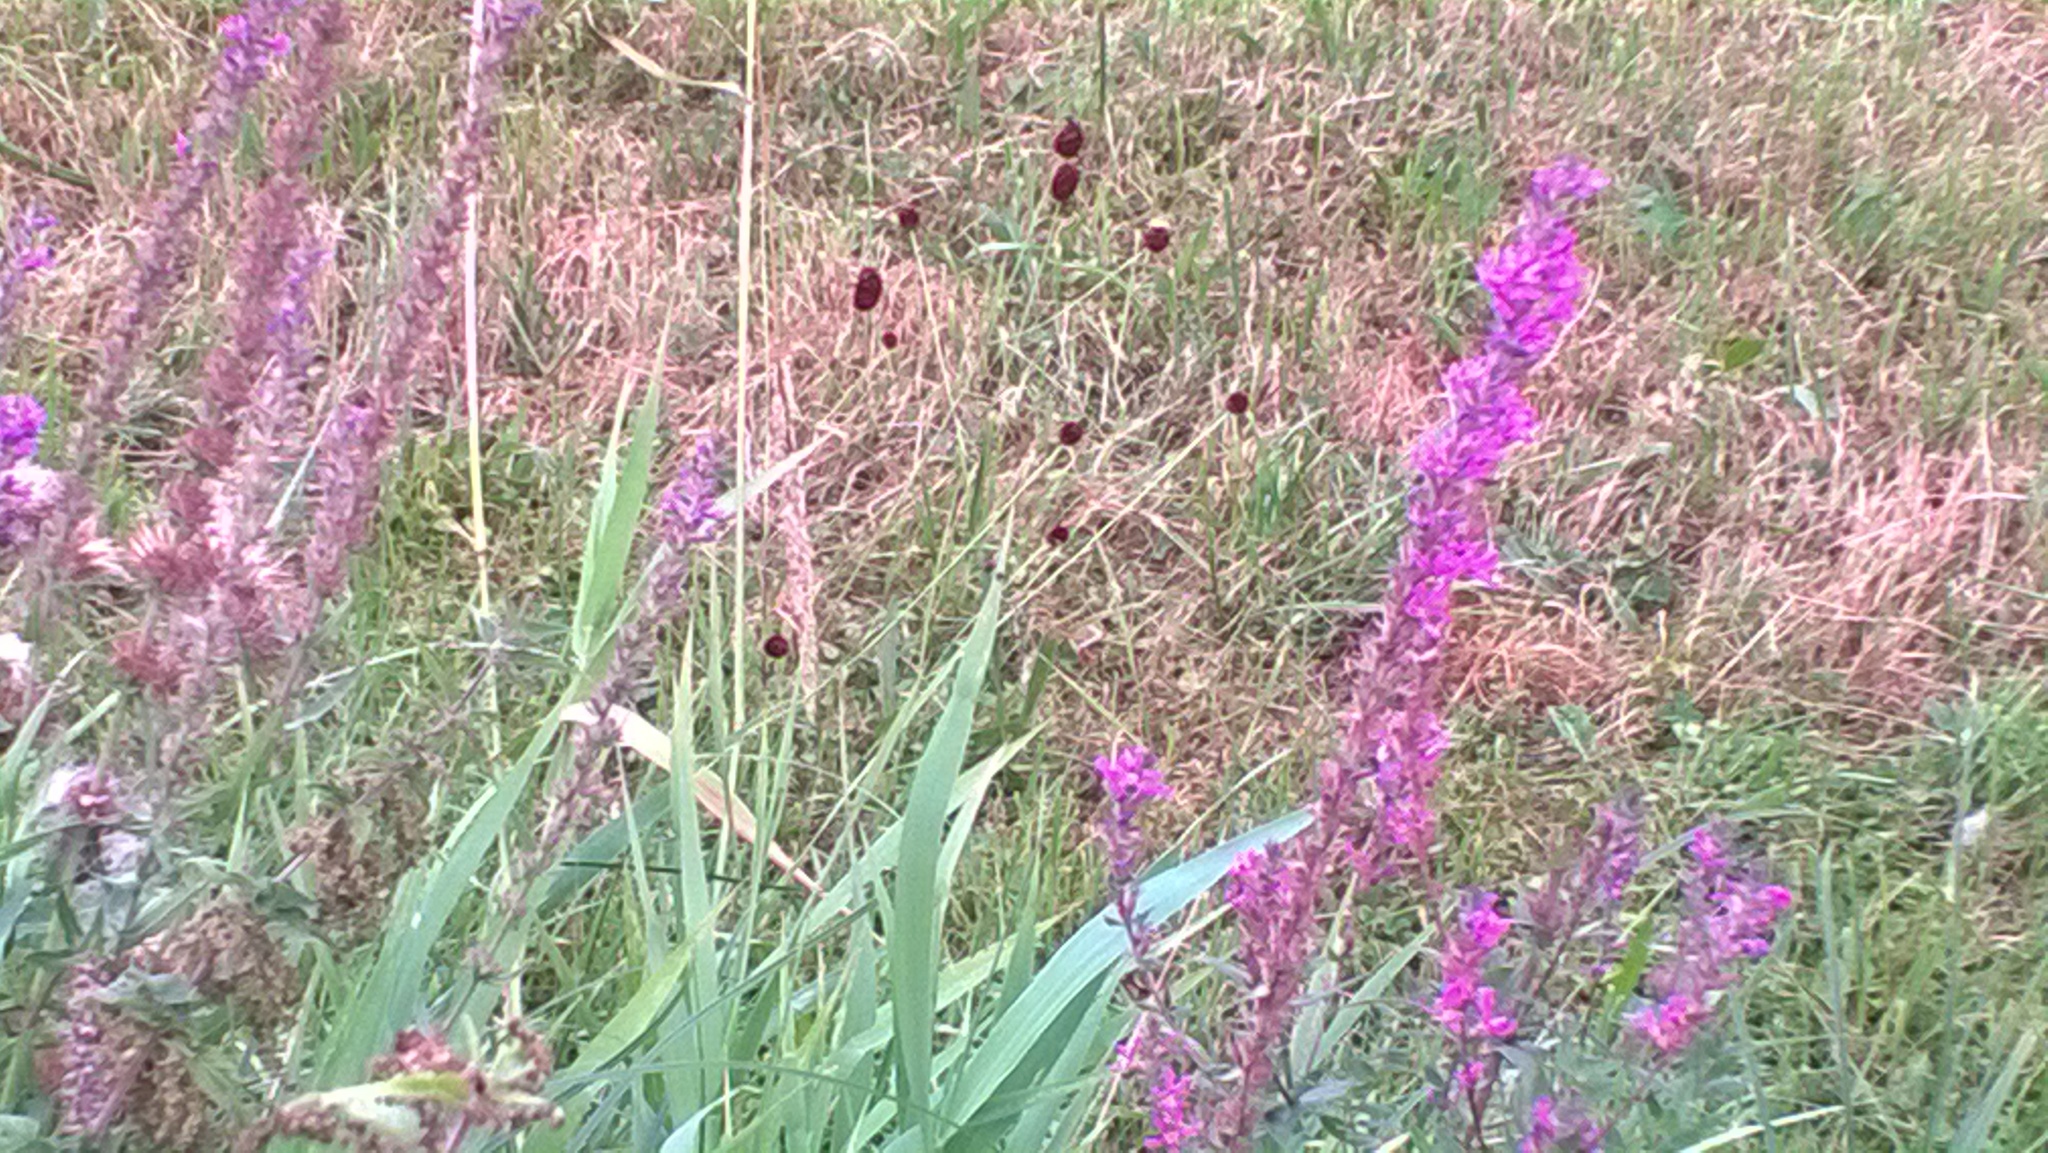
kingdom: Plantae
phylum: Tracheophyta
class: Magnoliopsida
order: Myrtales
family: Lythraceae
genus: Lythrum
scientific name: Lythrum salicaria
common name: Purple loosestrife
